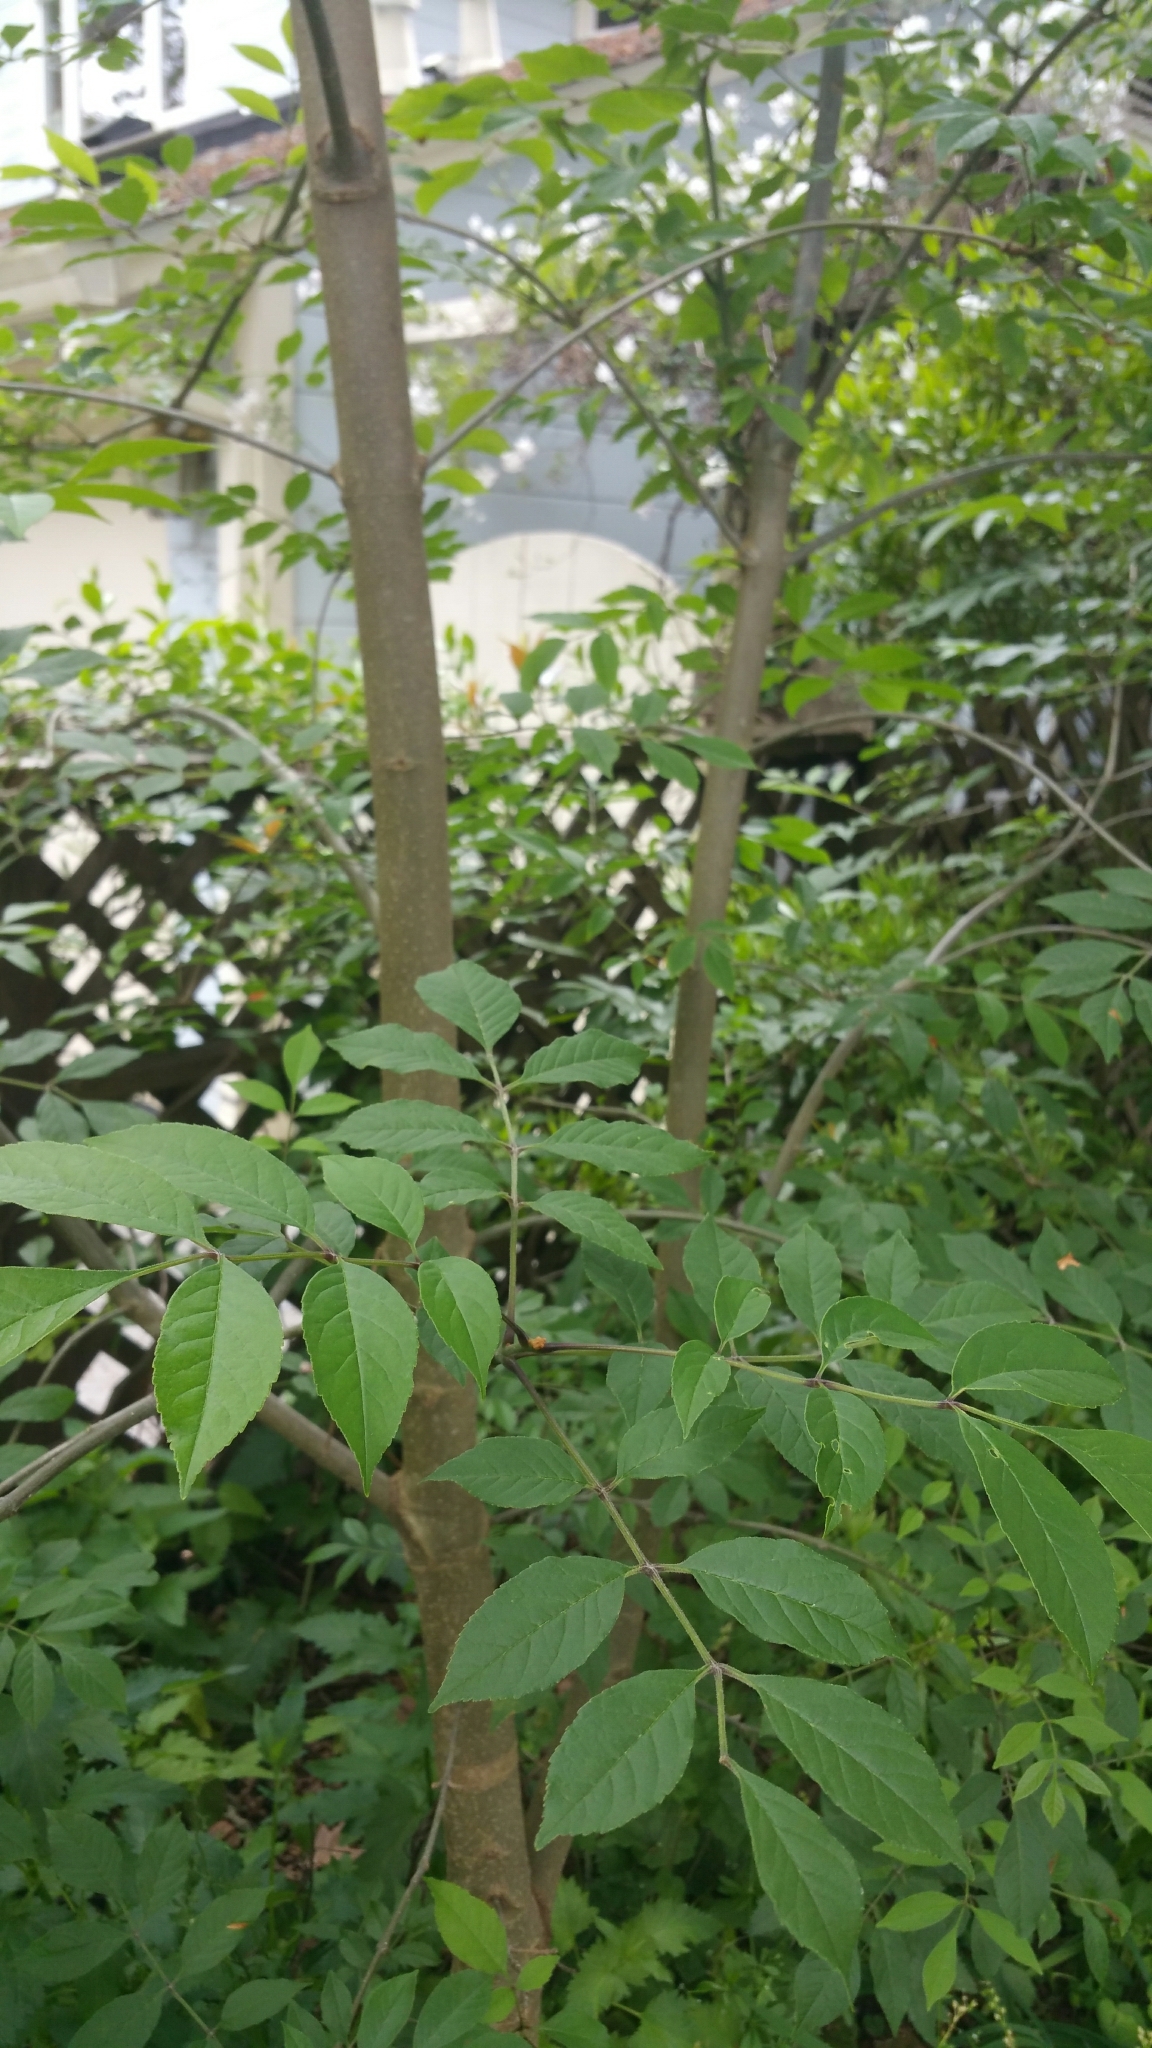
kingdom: Plantae
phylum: Tracheophyta
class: Magnoliopsida
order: Lamiales
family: Oleaceae
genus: Fraxinus
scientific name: Fraxinus latifolia
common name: Oregon ash
